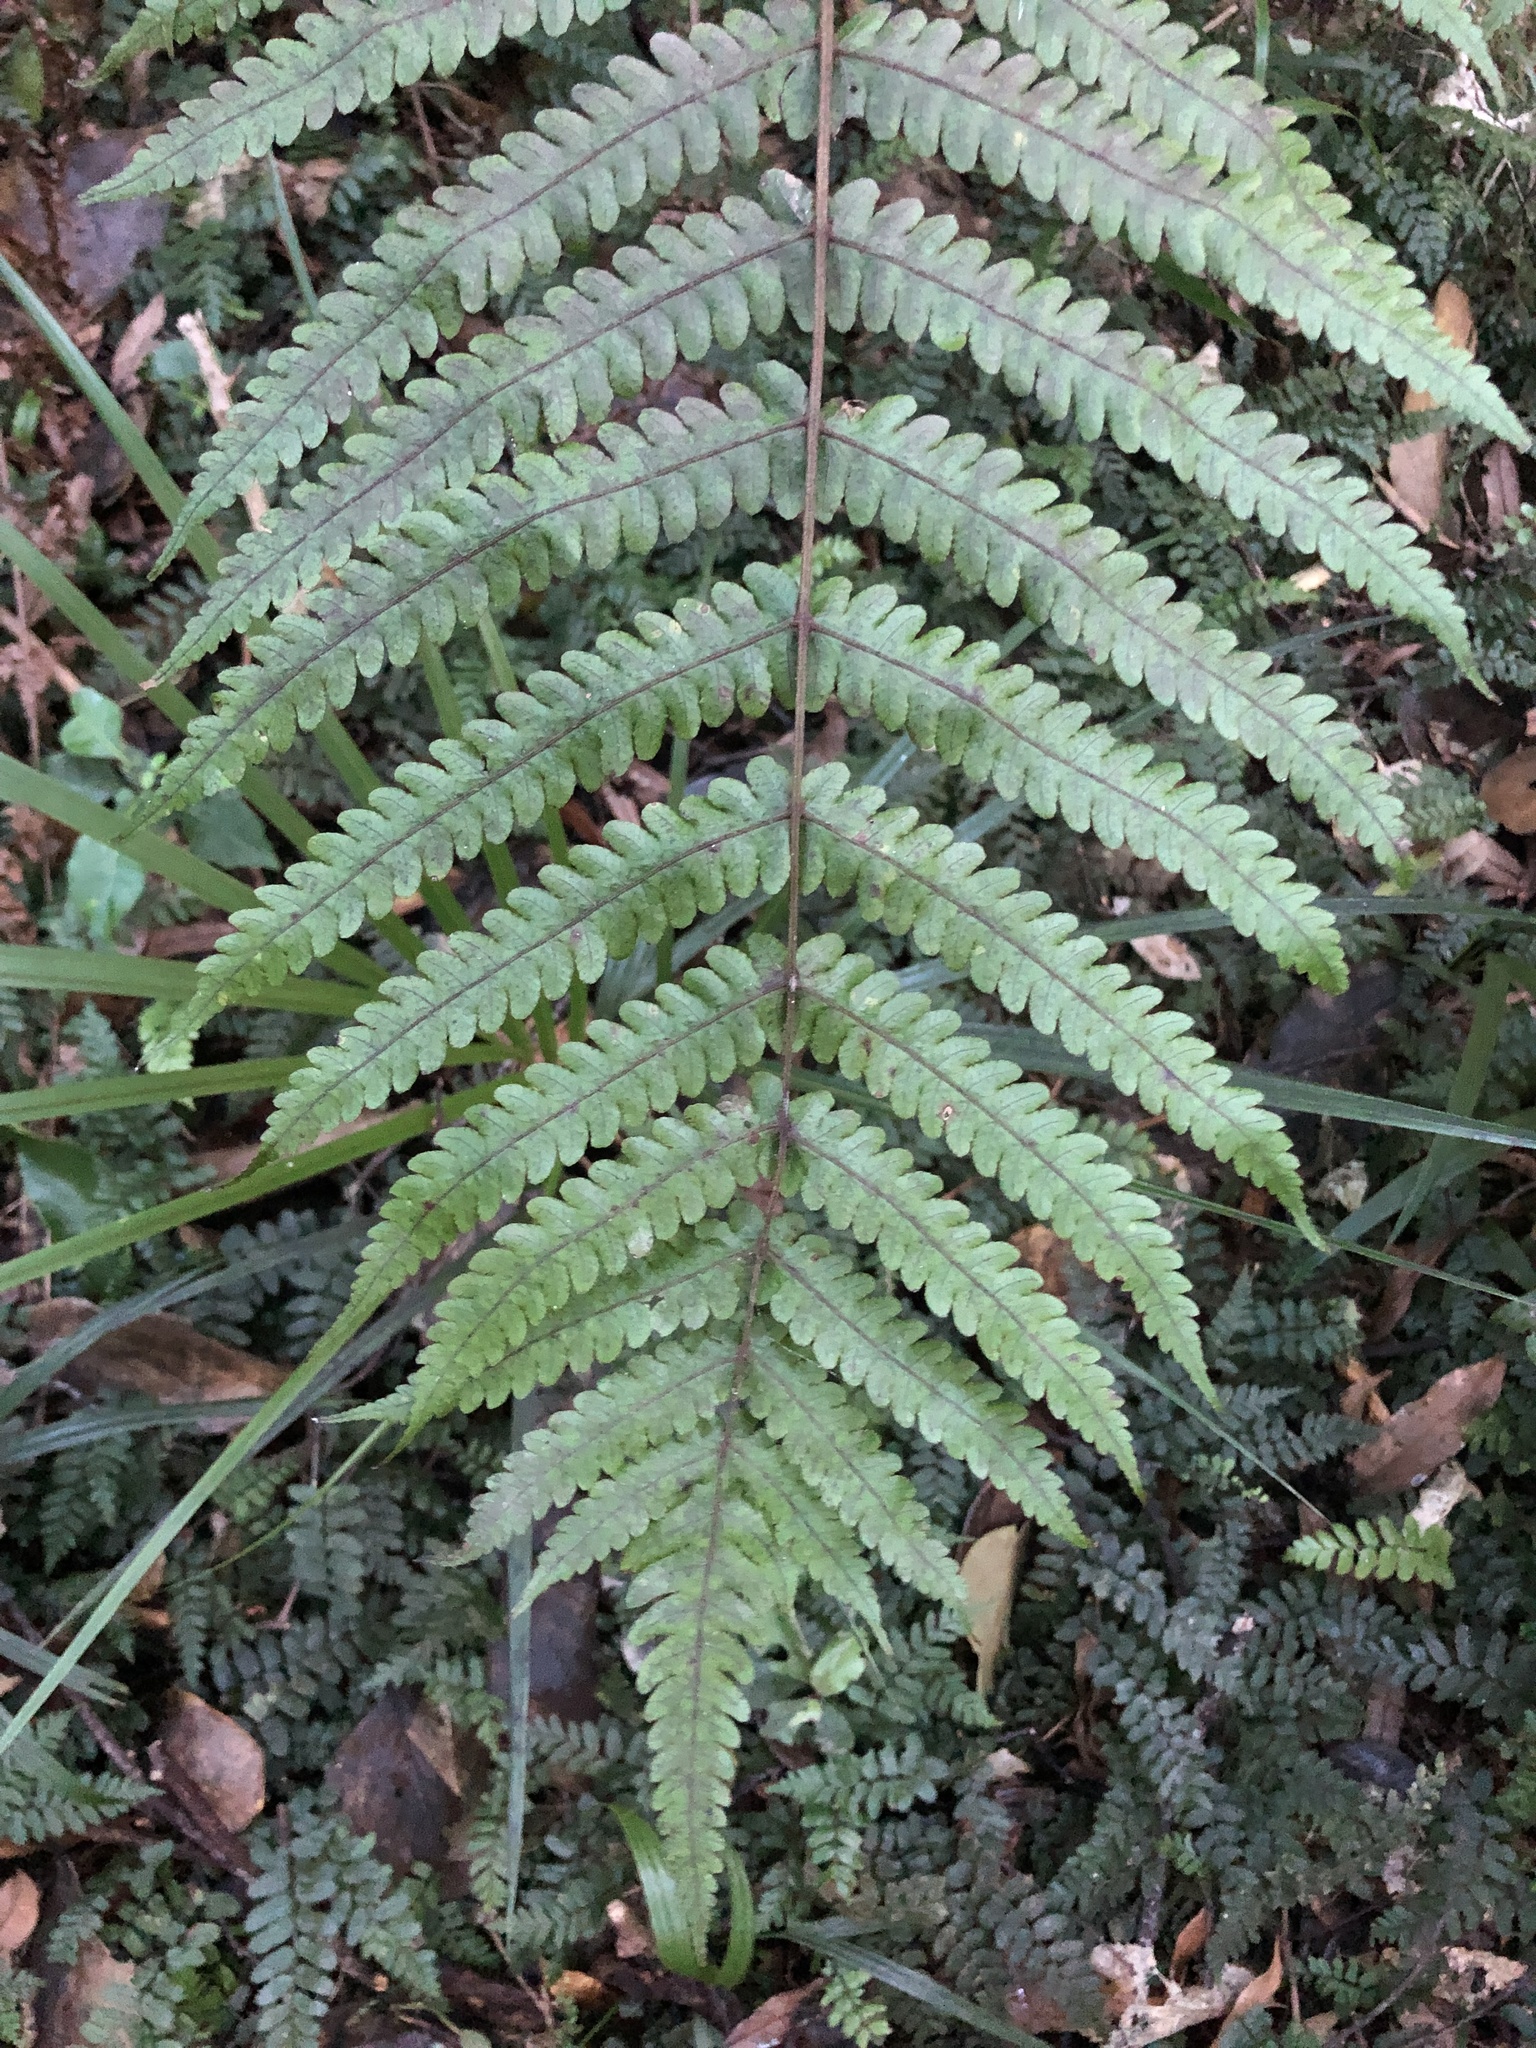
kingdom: Plantae
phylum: Tracheophyta
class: Polypodiopsida
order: Polypodiales
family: Thelypteridaceae
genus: Pakau
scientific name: Pakau pennigera
